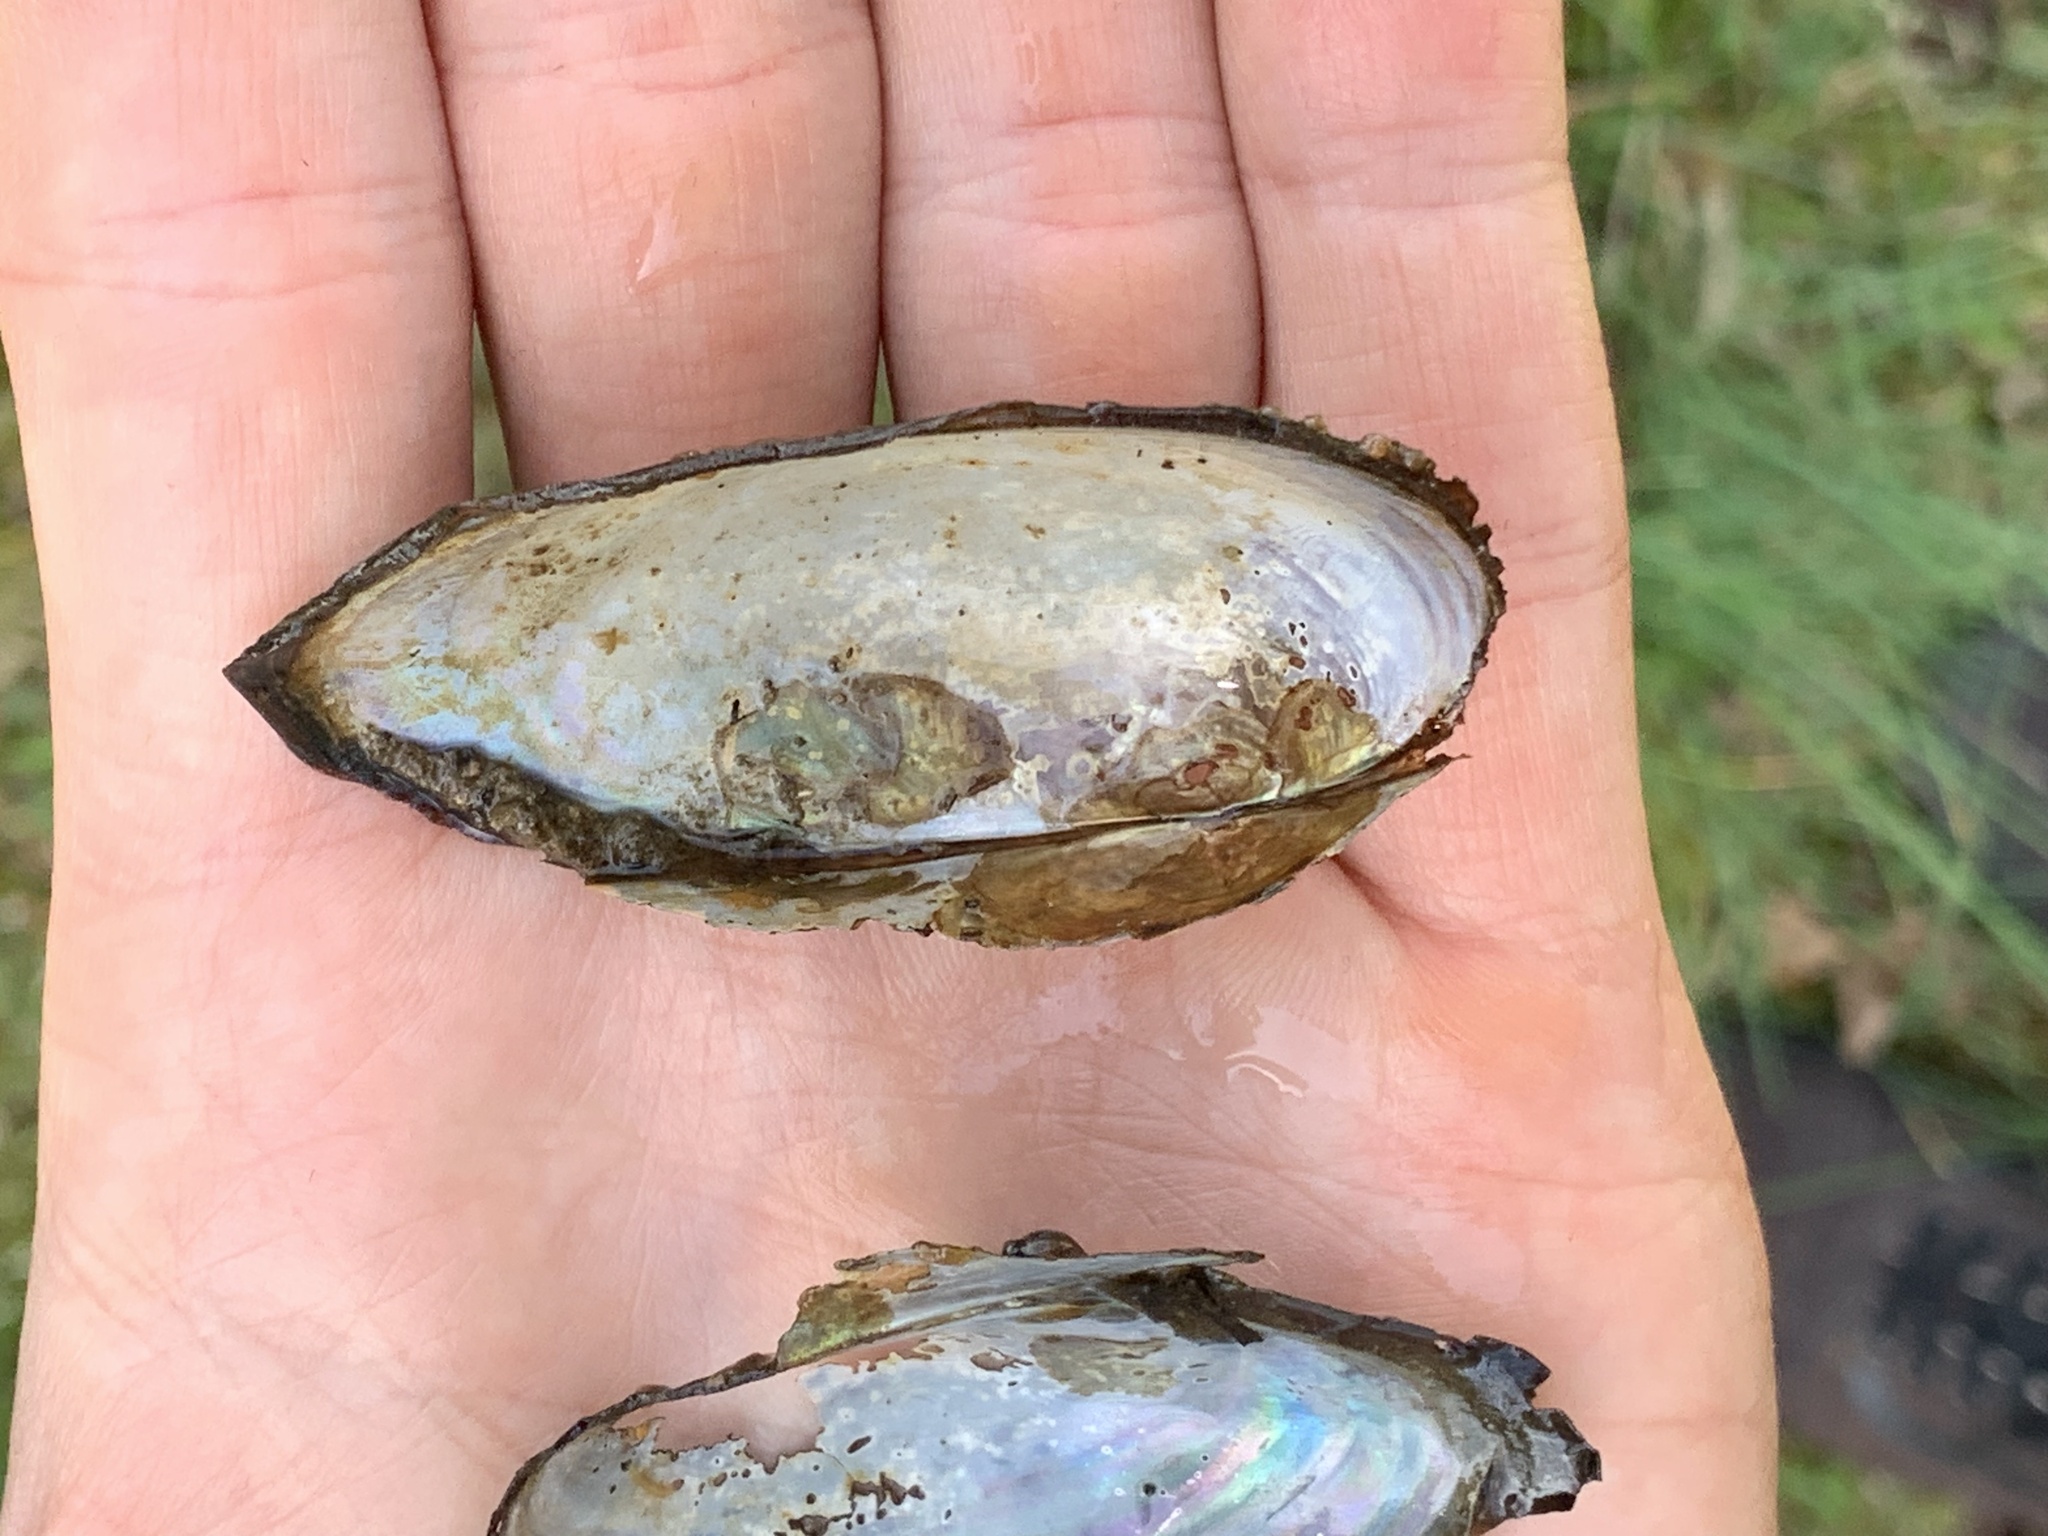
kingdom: Animalia
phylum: Mollusca
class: Bivalvia
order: Unionida
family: Unionidae
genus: Utterbackia
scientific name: Utterbackia imbecillis
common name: Paper pondshell
